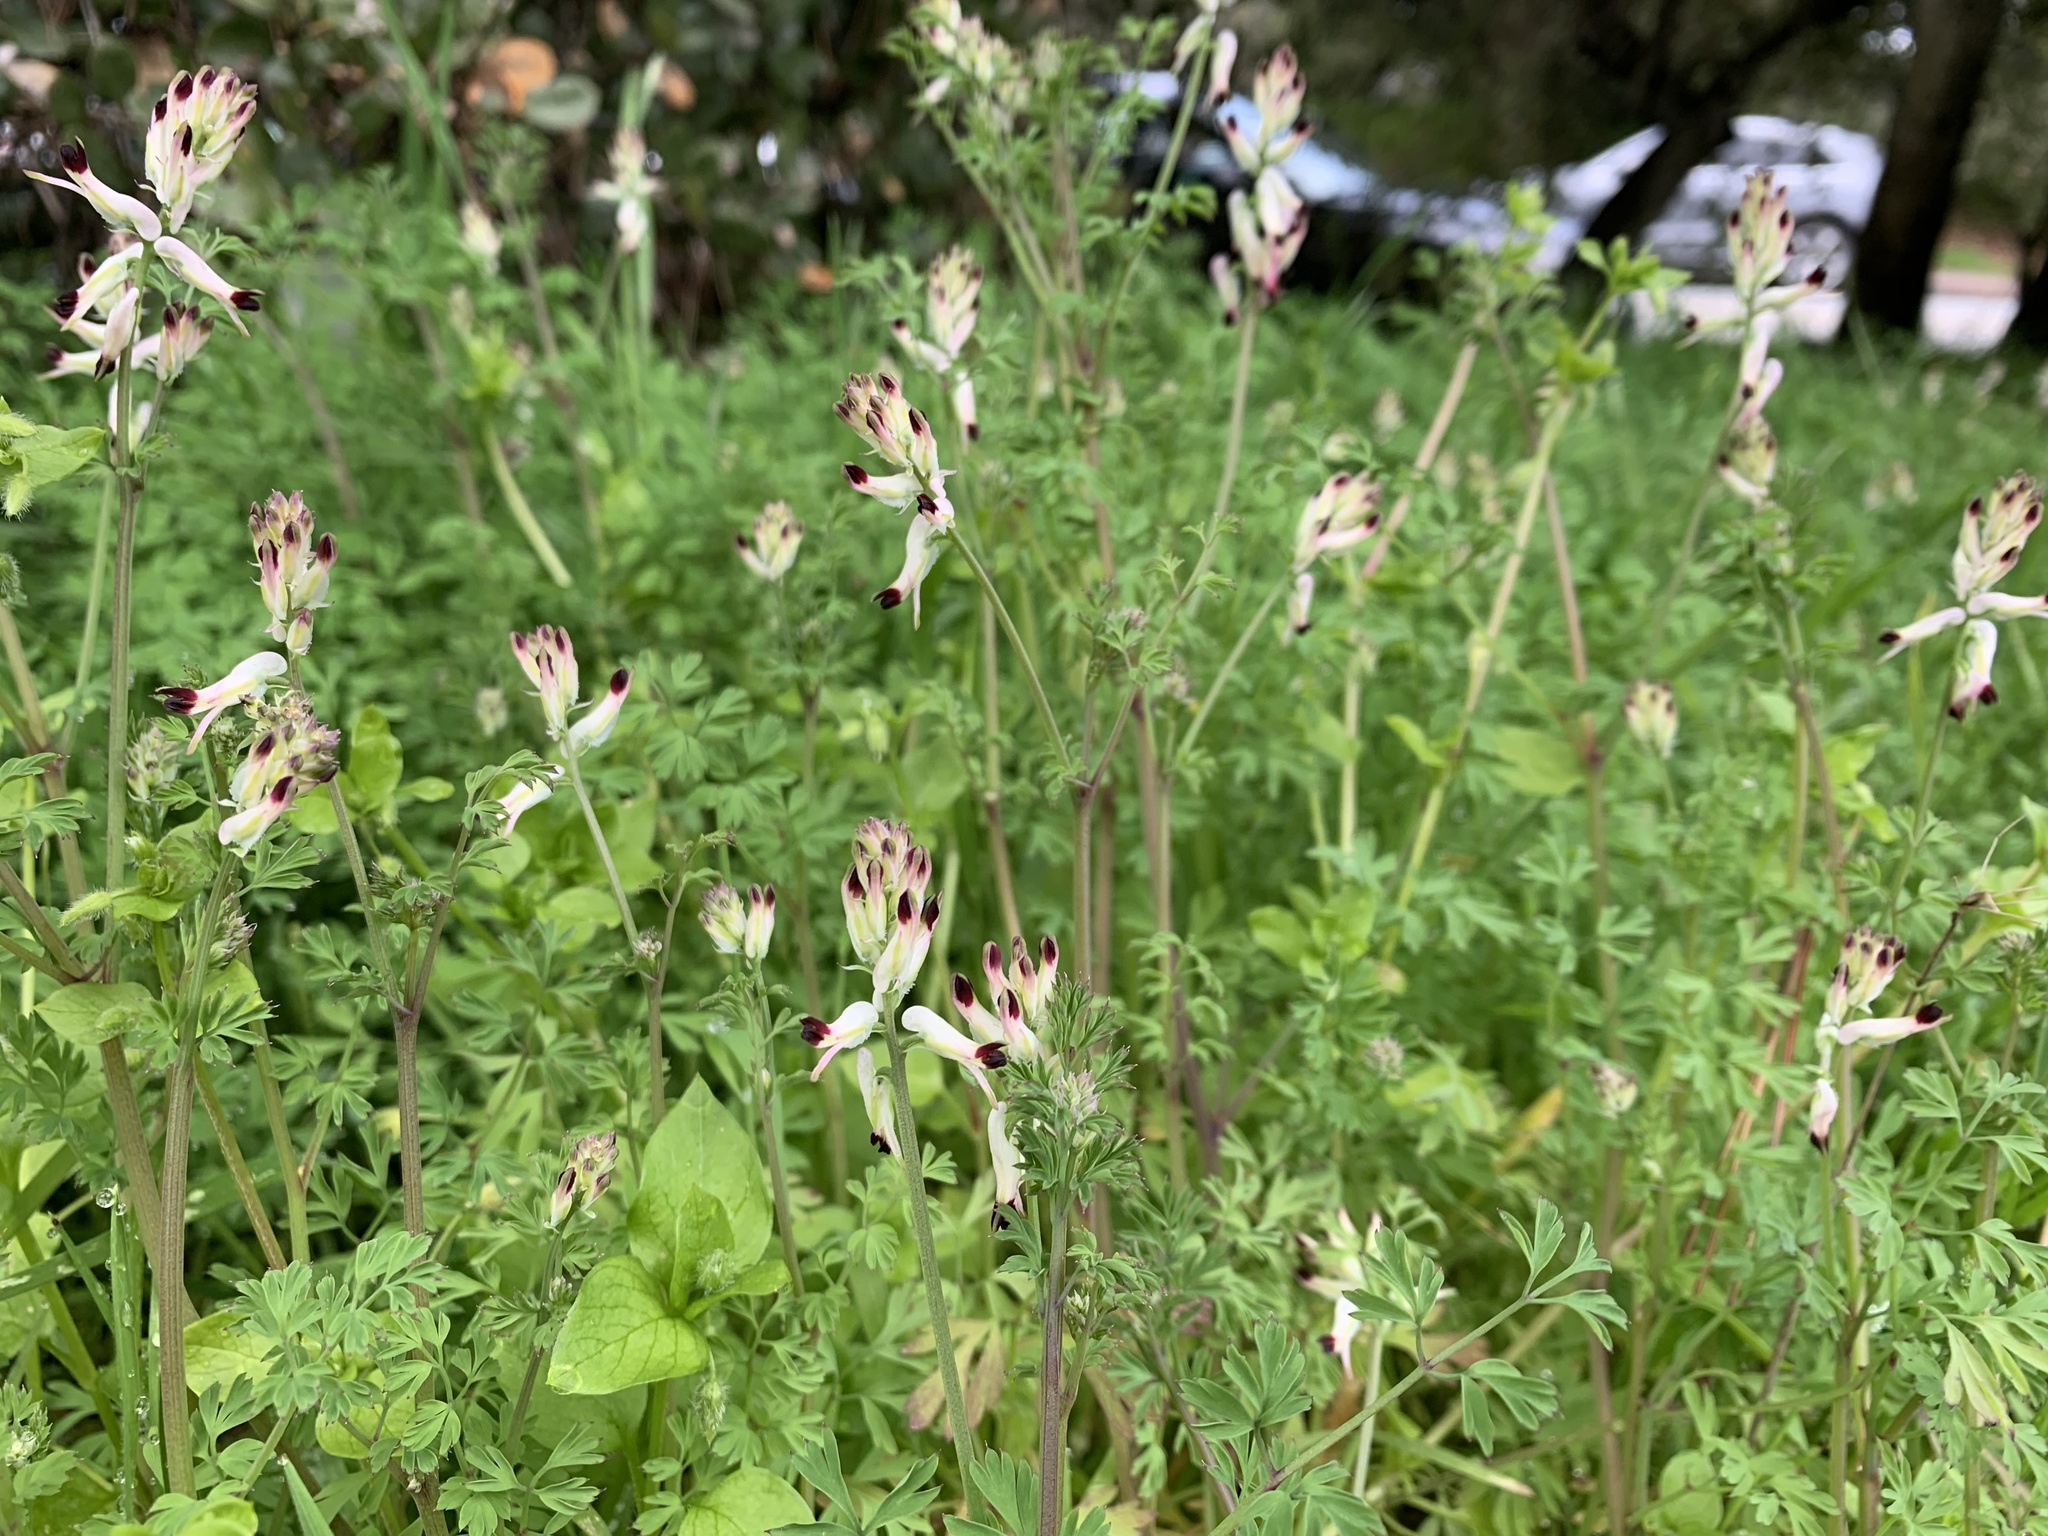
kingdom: Plantae
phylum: Tracheophyta
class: Magnoliopsida
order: Ranunculales
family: Papaveraceae
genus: Fumaria
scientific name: Fumaria capreolata
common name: White ramping-fumitory
